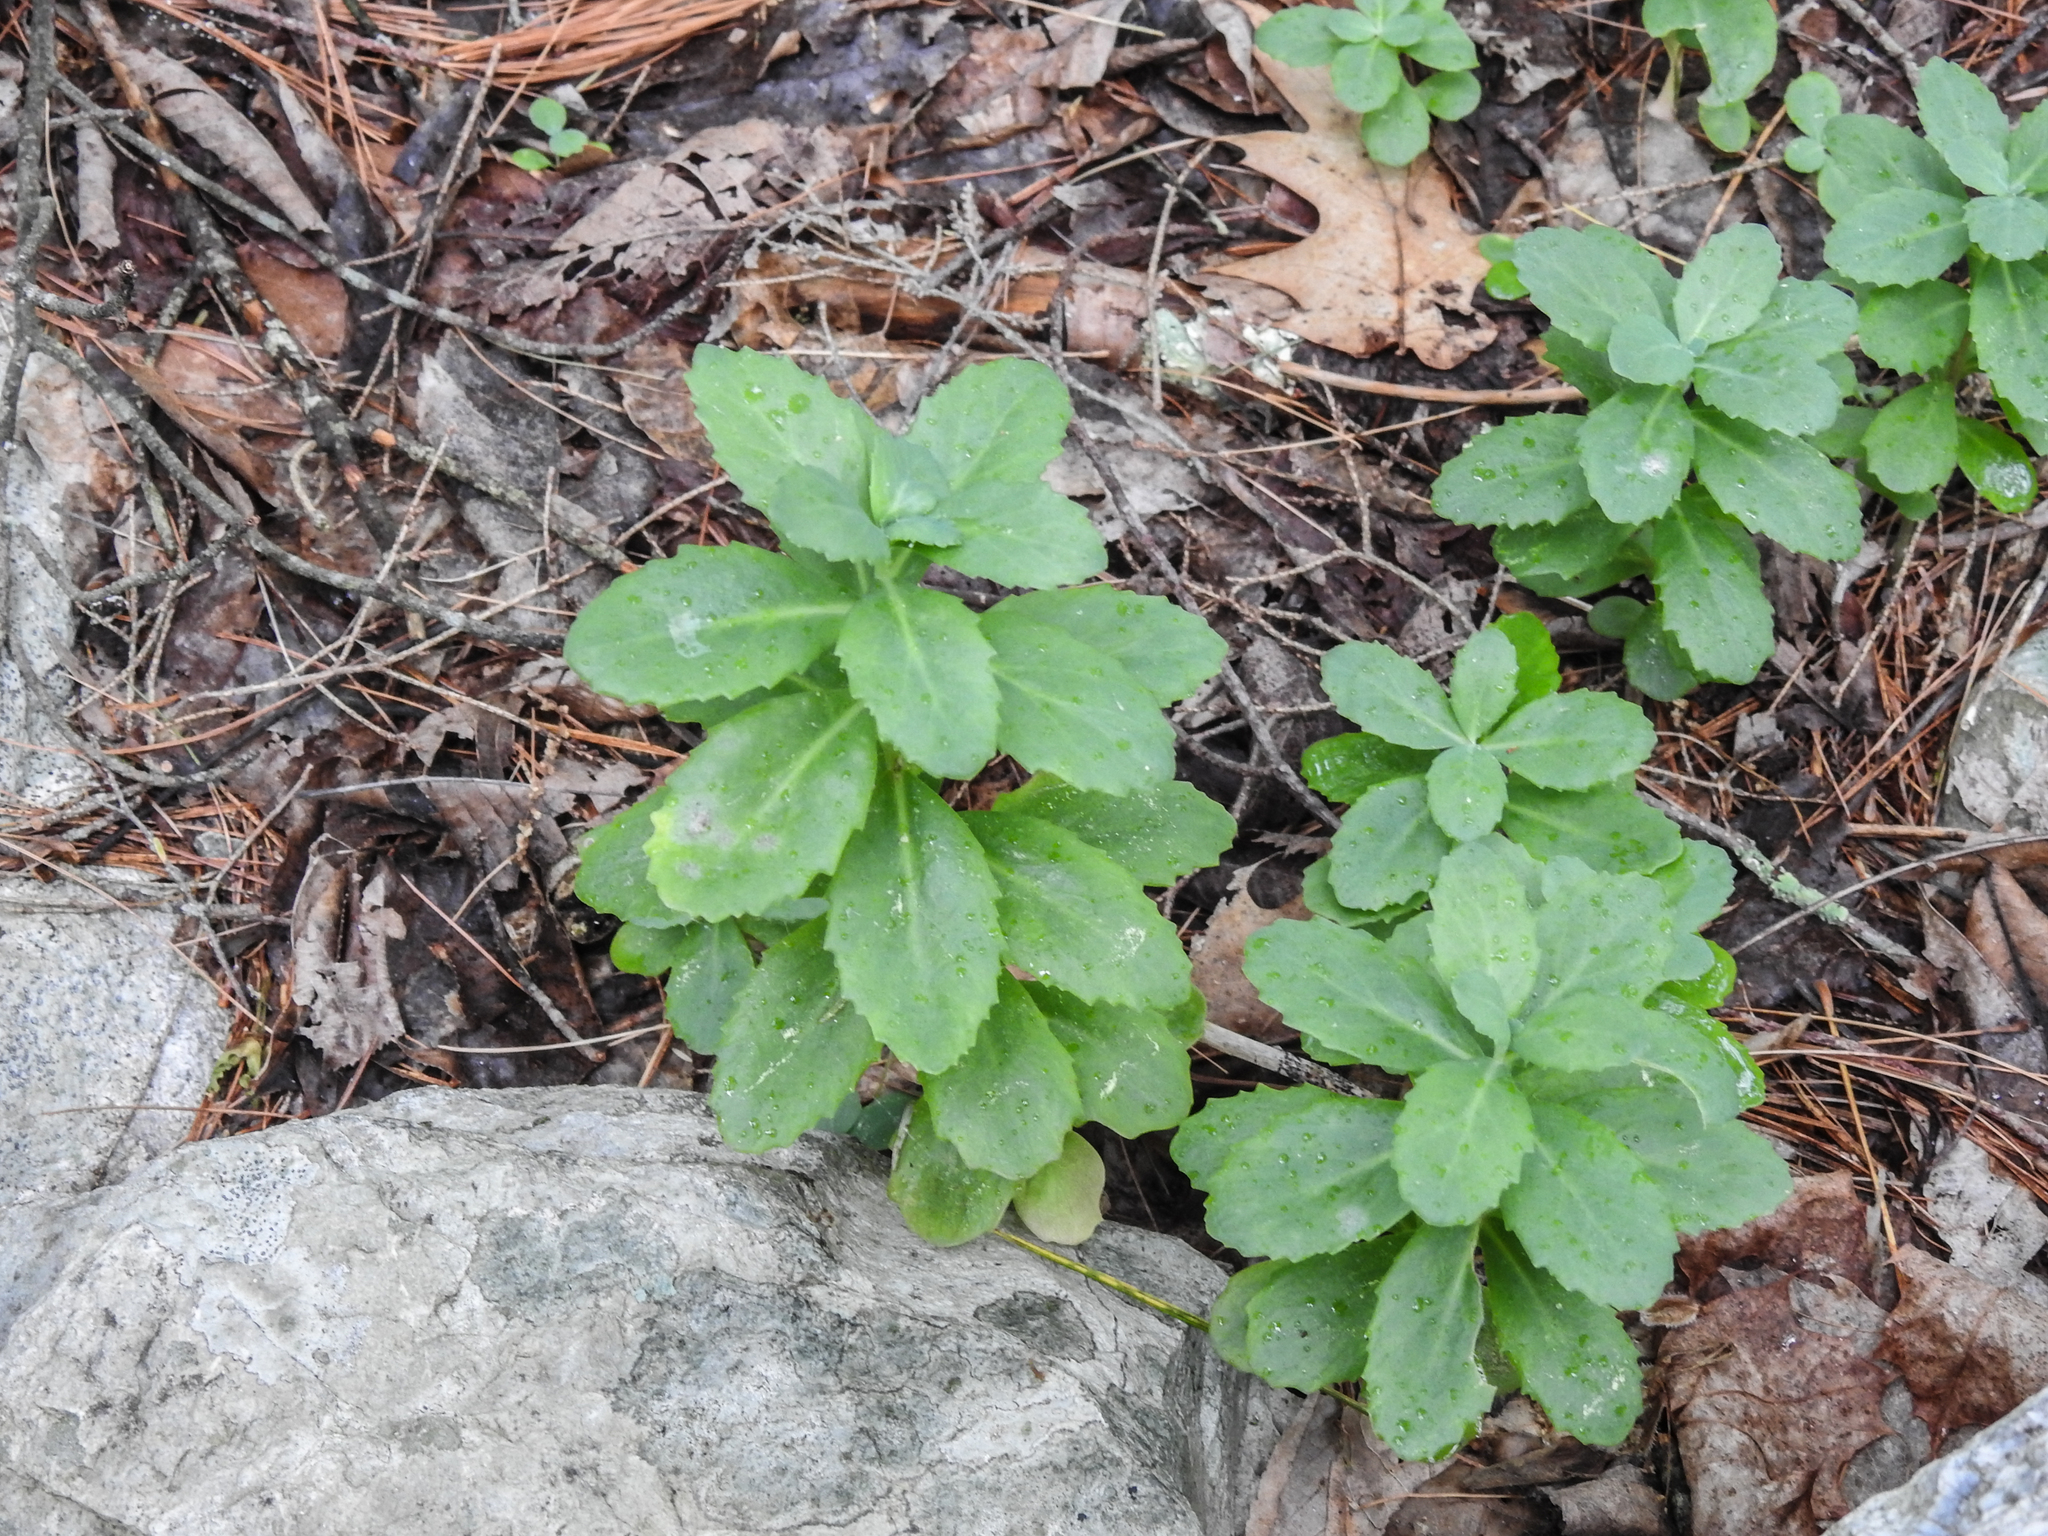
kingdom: Plantae
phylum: Tracheophyta
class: Magnoliopsida
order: Saxifragales
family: Crassulaceae
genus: Hylotelephium
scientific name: Hylotelephium telephium
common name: Live-forever
